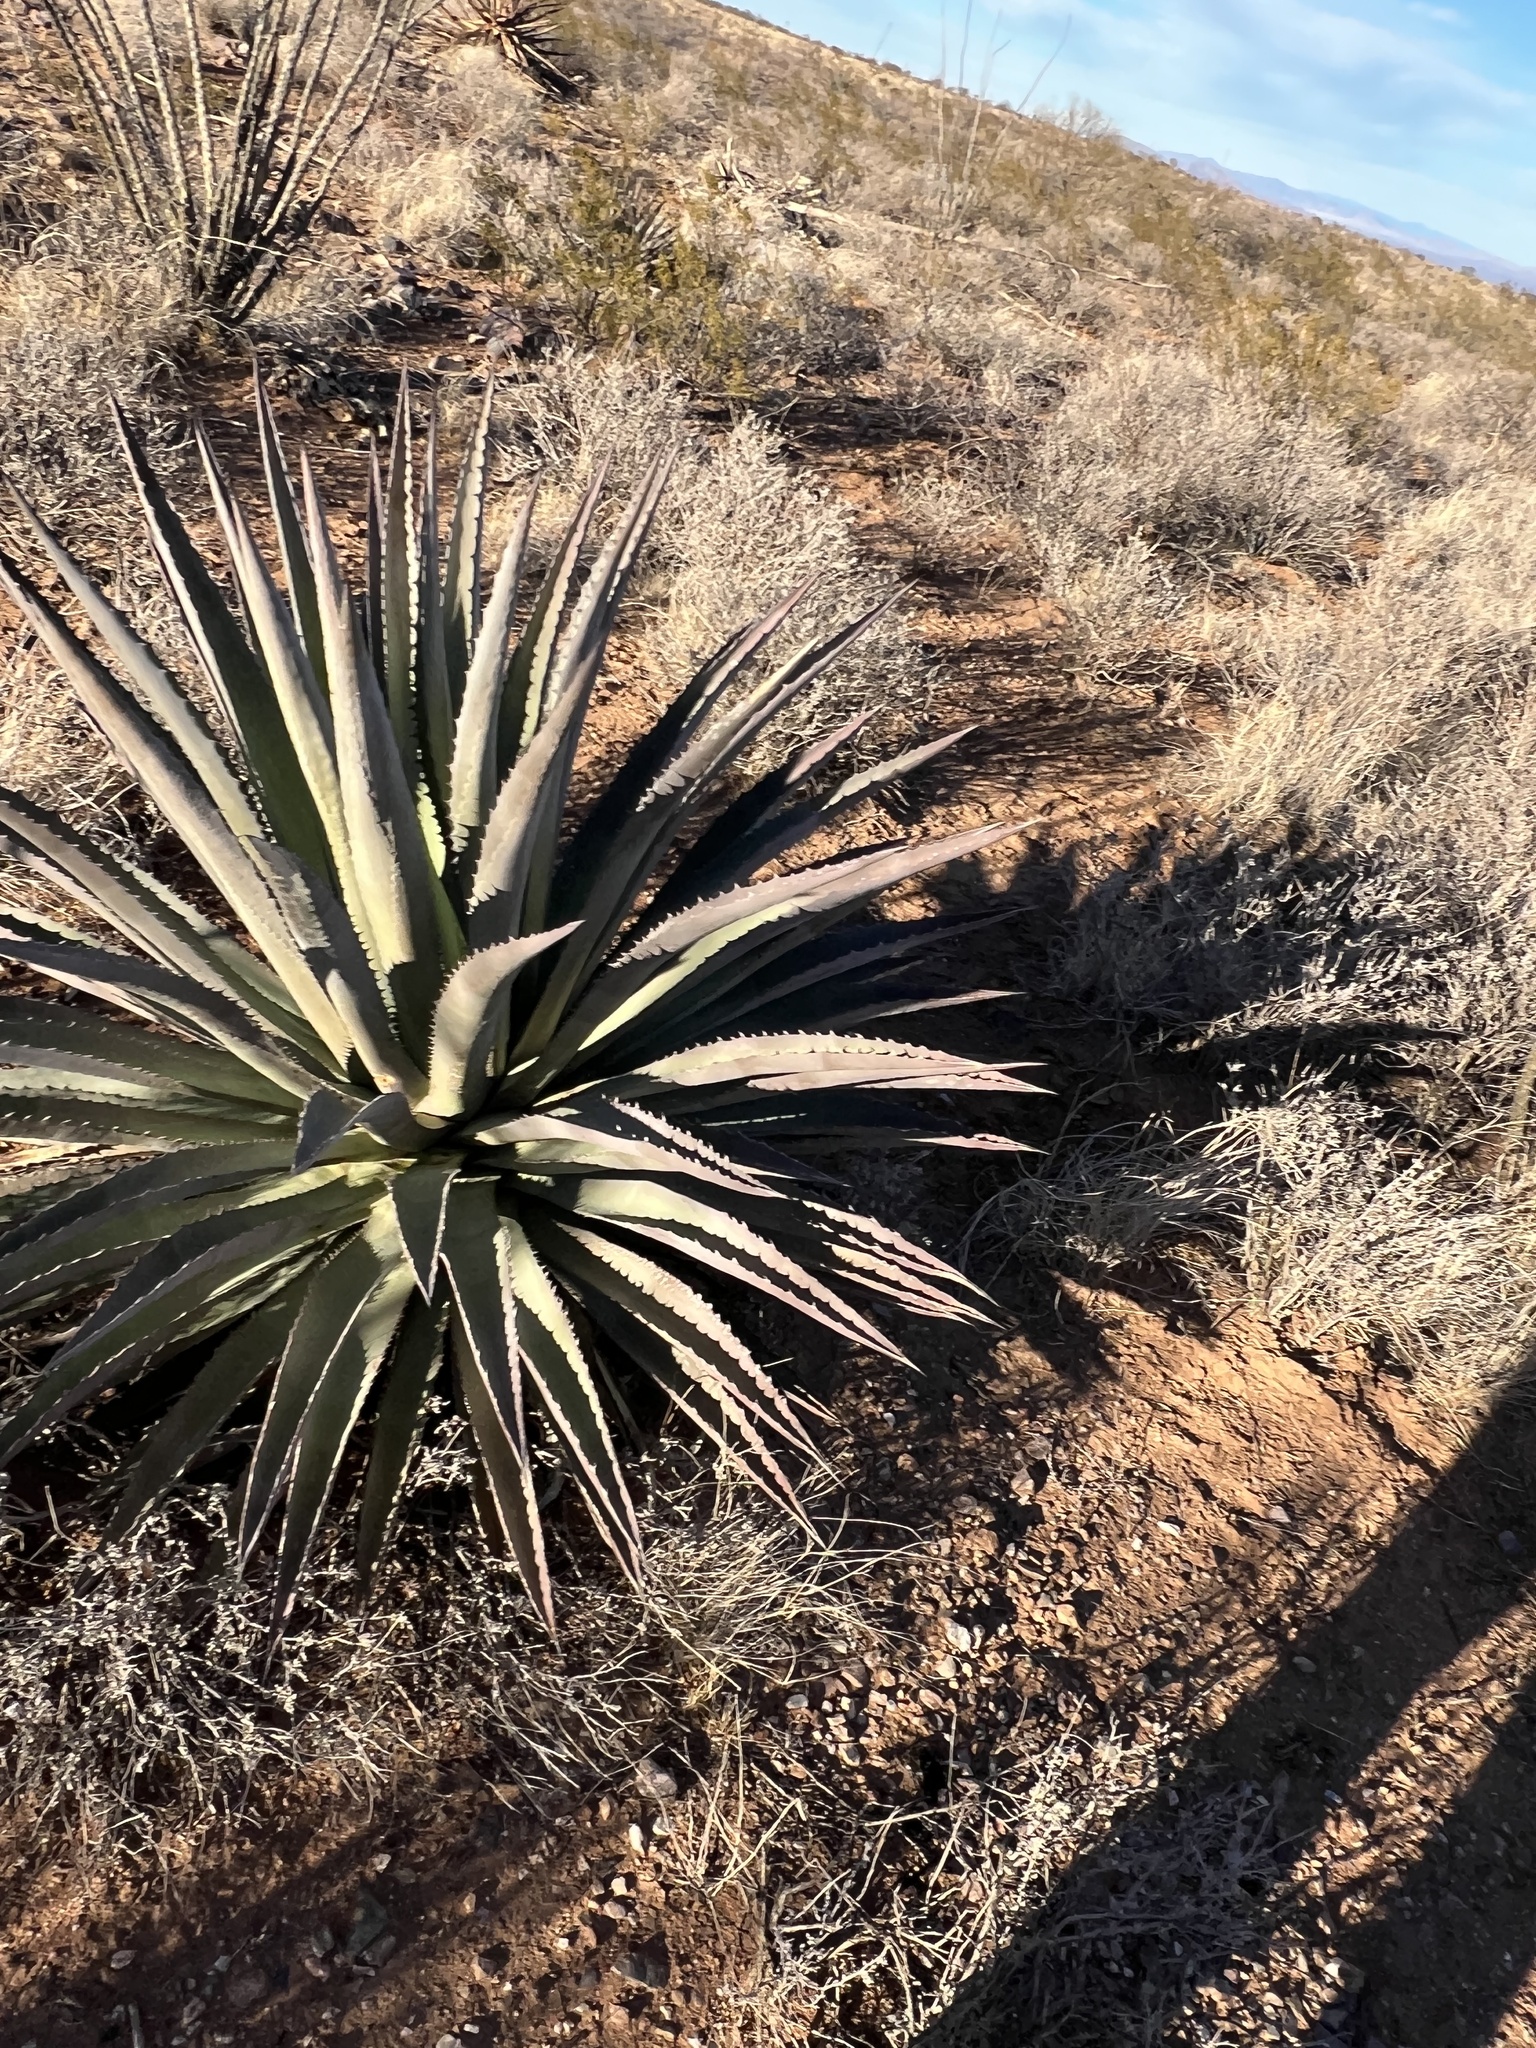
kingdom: Plantae
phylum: Tracheophyta
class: Liliopsida
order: Asparagales
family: Asparagaceae
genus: Agave
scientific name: Agave palmeri
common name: Palmer agave
